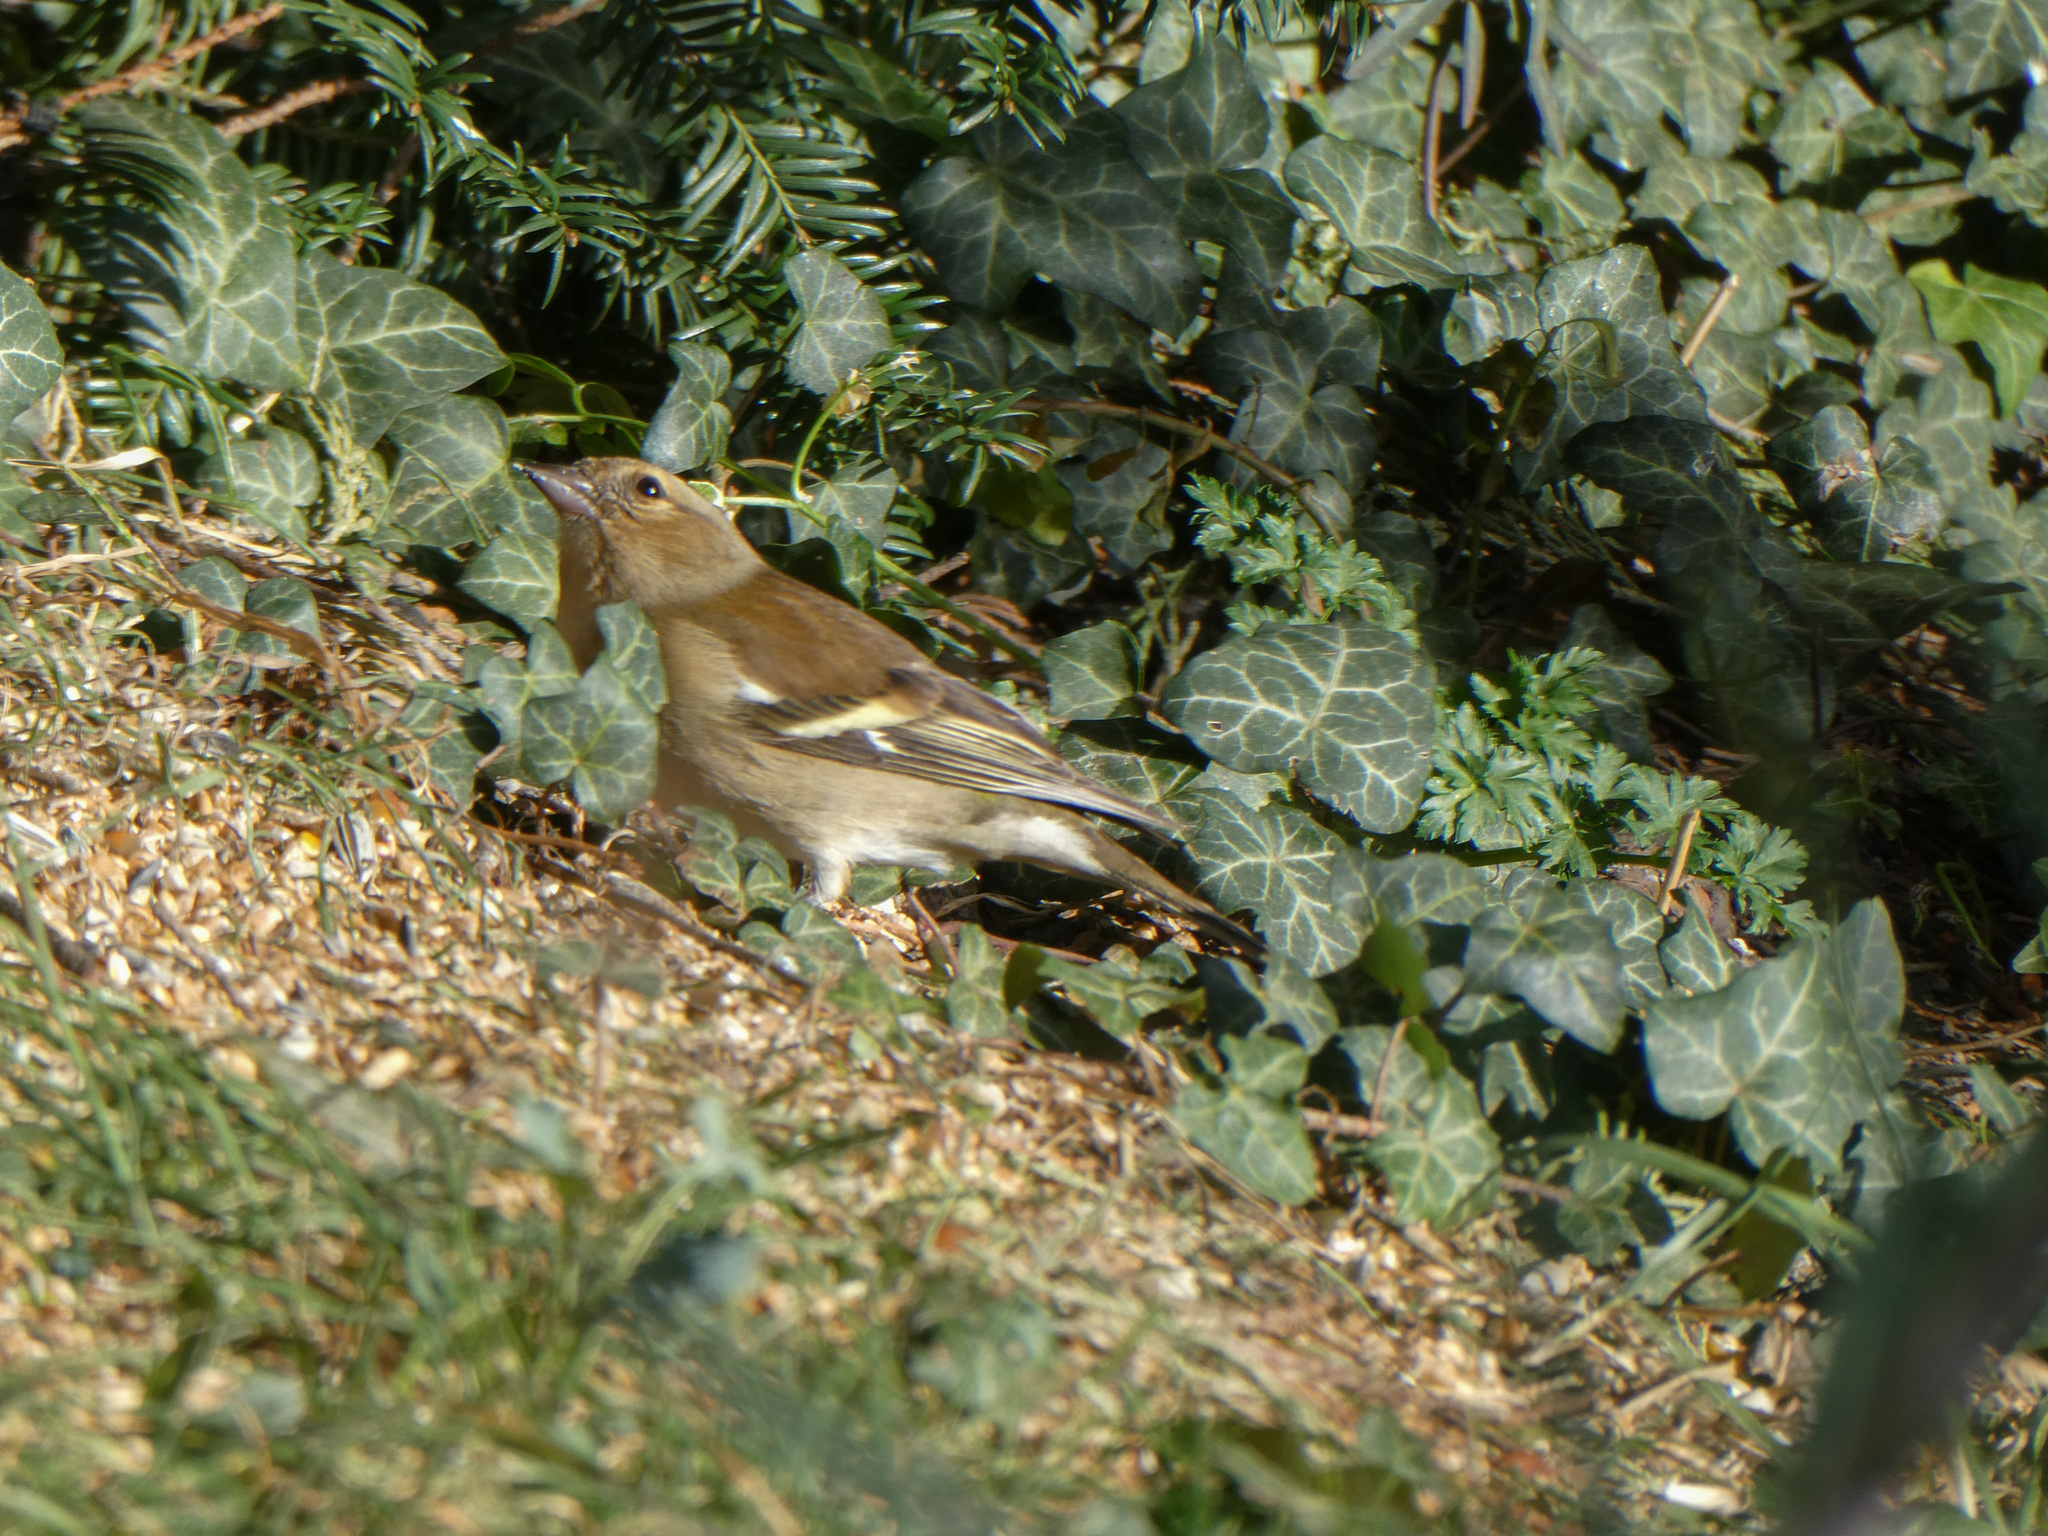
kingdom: Animalia
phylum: Chordata
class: Aves
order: Passeriformes
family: Fringillidae
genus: Fringilla
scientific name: Fringilla coelebs
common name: Common chaffinch
